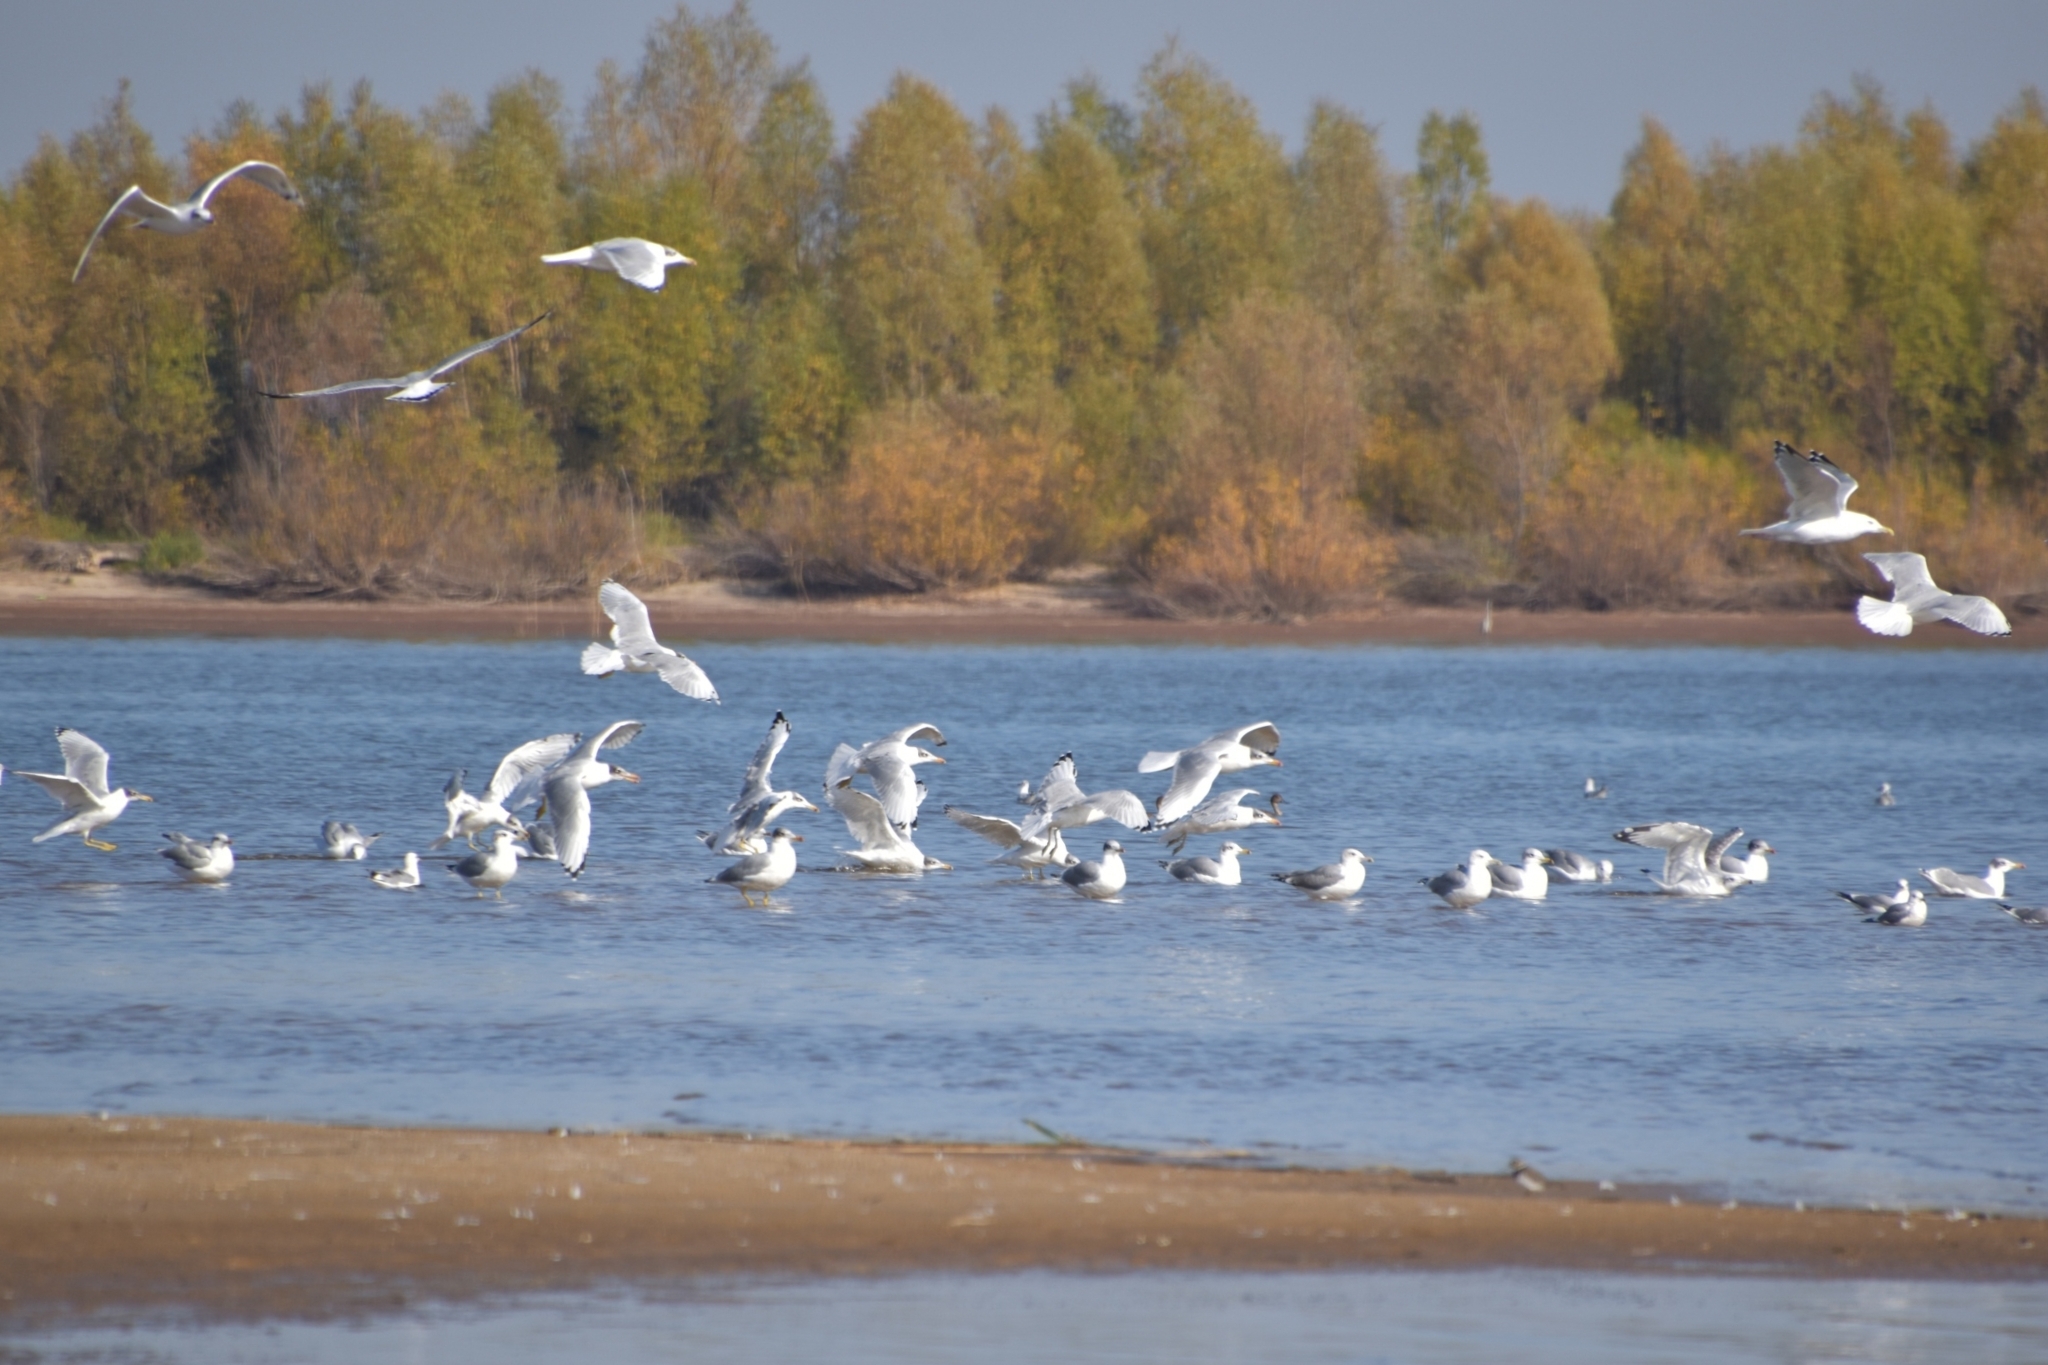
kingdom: Animalia
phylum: Chordata
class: Aves
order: Charadriiformes
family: Laridae
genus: Ichthyaetus
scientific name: Ichthyaetus ichthyaetus
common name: Pallas's gull
